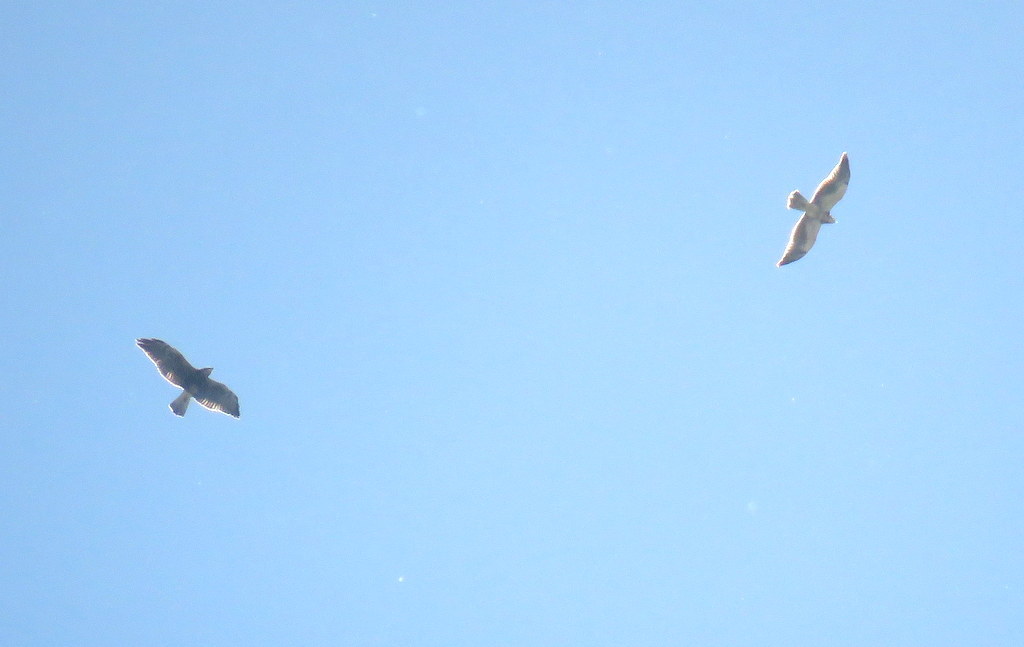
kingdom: Animalia
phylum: Chordata
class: Aves
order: Accipitriformes
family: Accipitridae
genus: Buteo
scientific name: Buteo swainsoni
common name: Swainson's hawk
